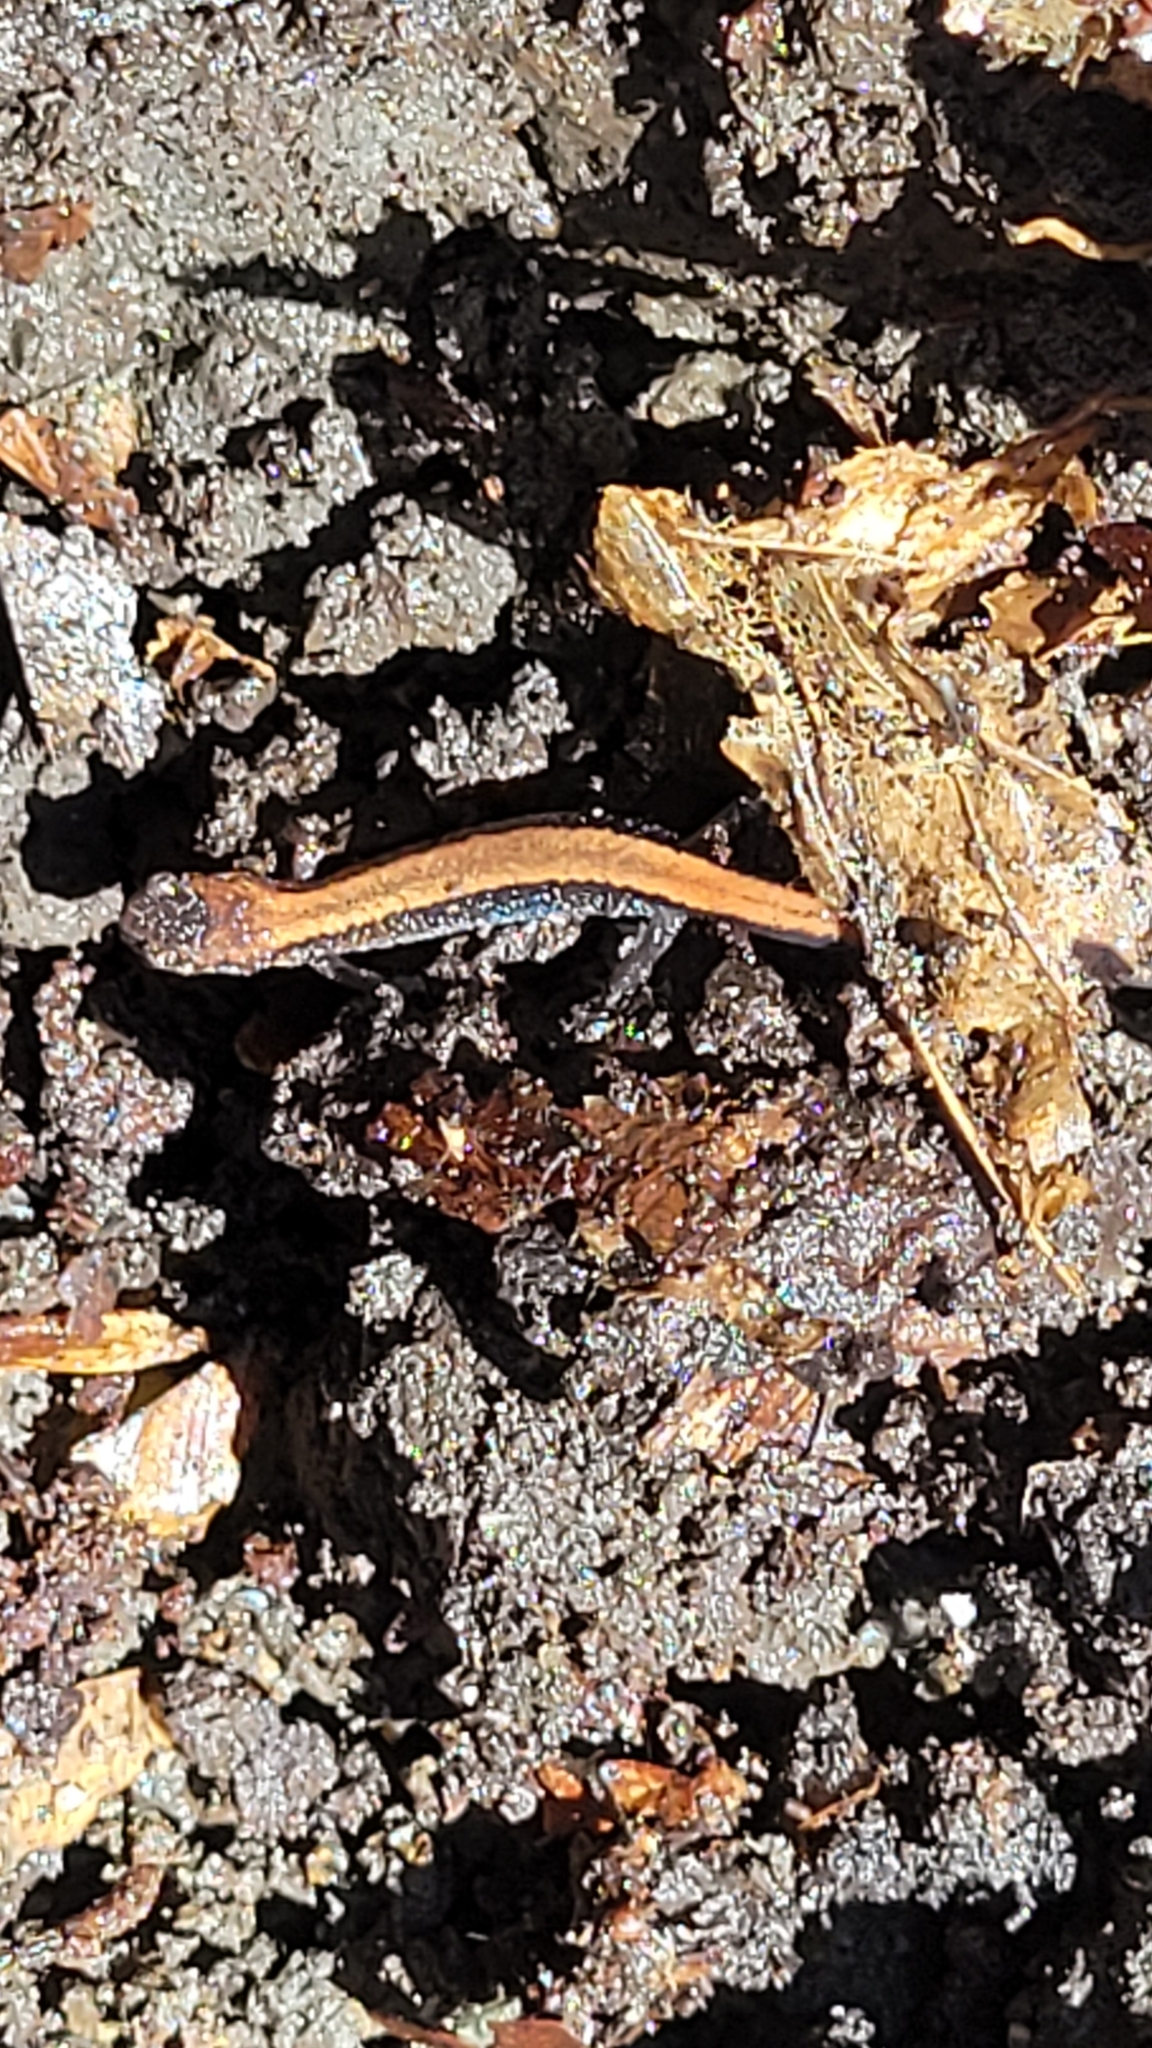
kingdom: Animalia
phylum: Chordata
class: Amphibia
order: Caudata
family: Plethodontidae
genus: Plethodon
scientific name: Plethodon cinereus
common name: Redback salamander
